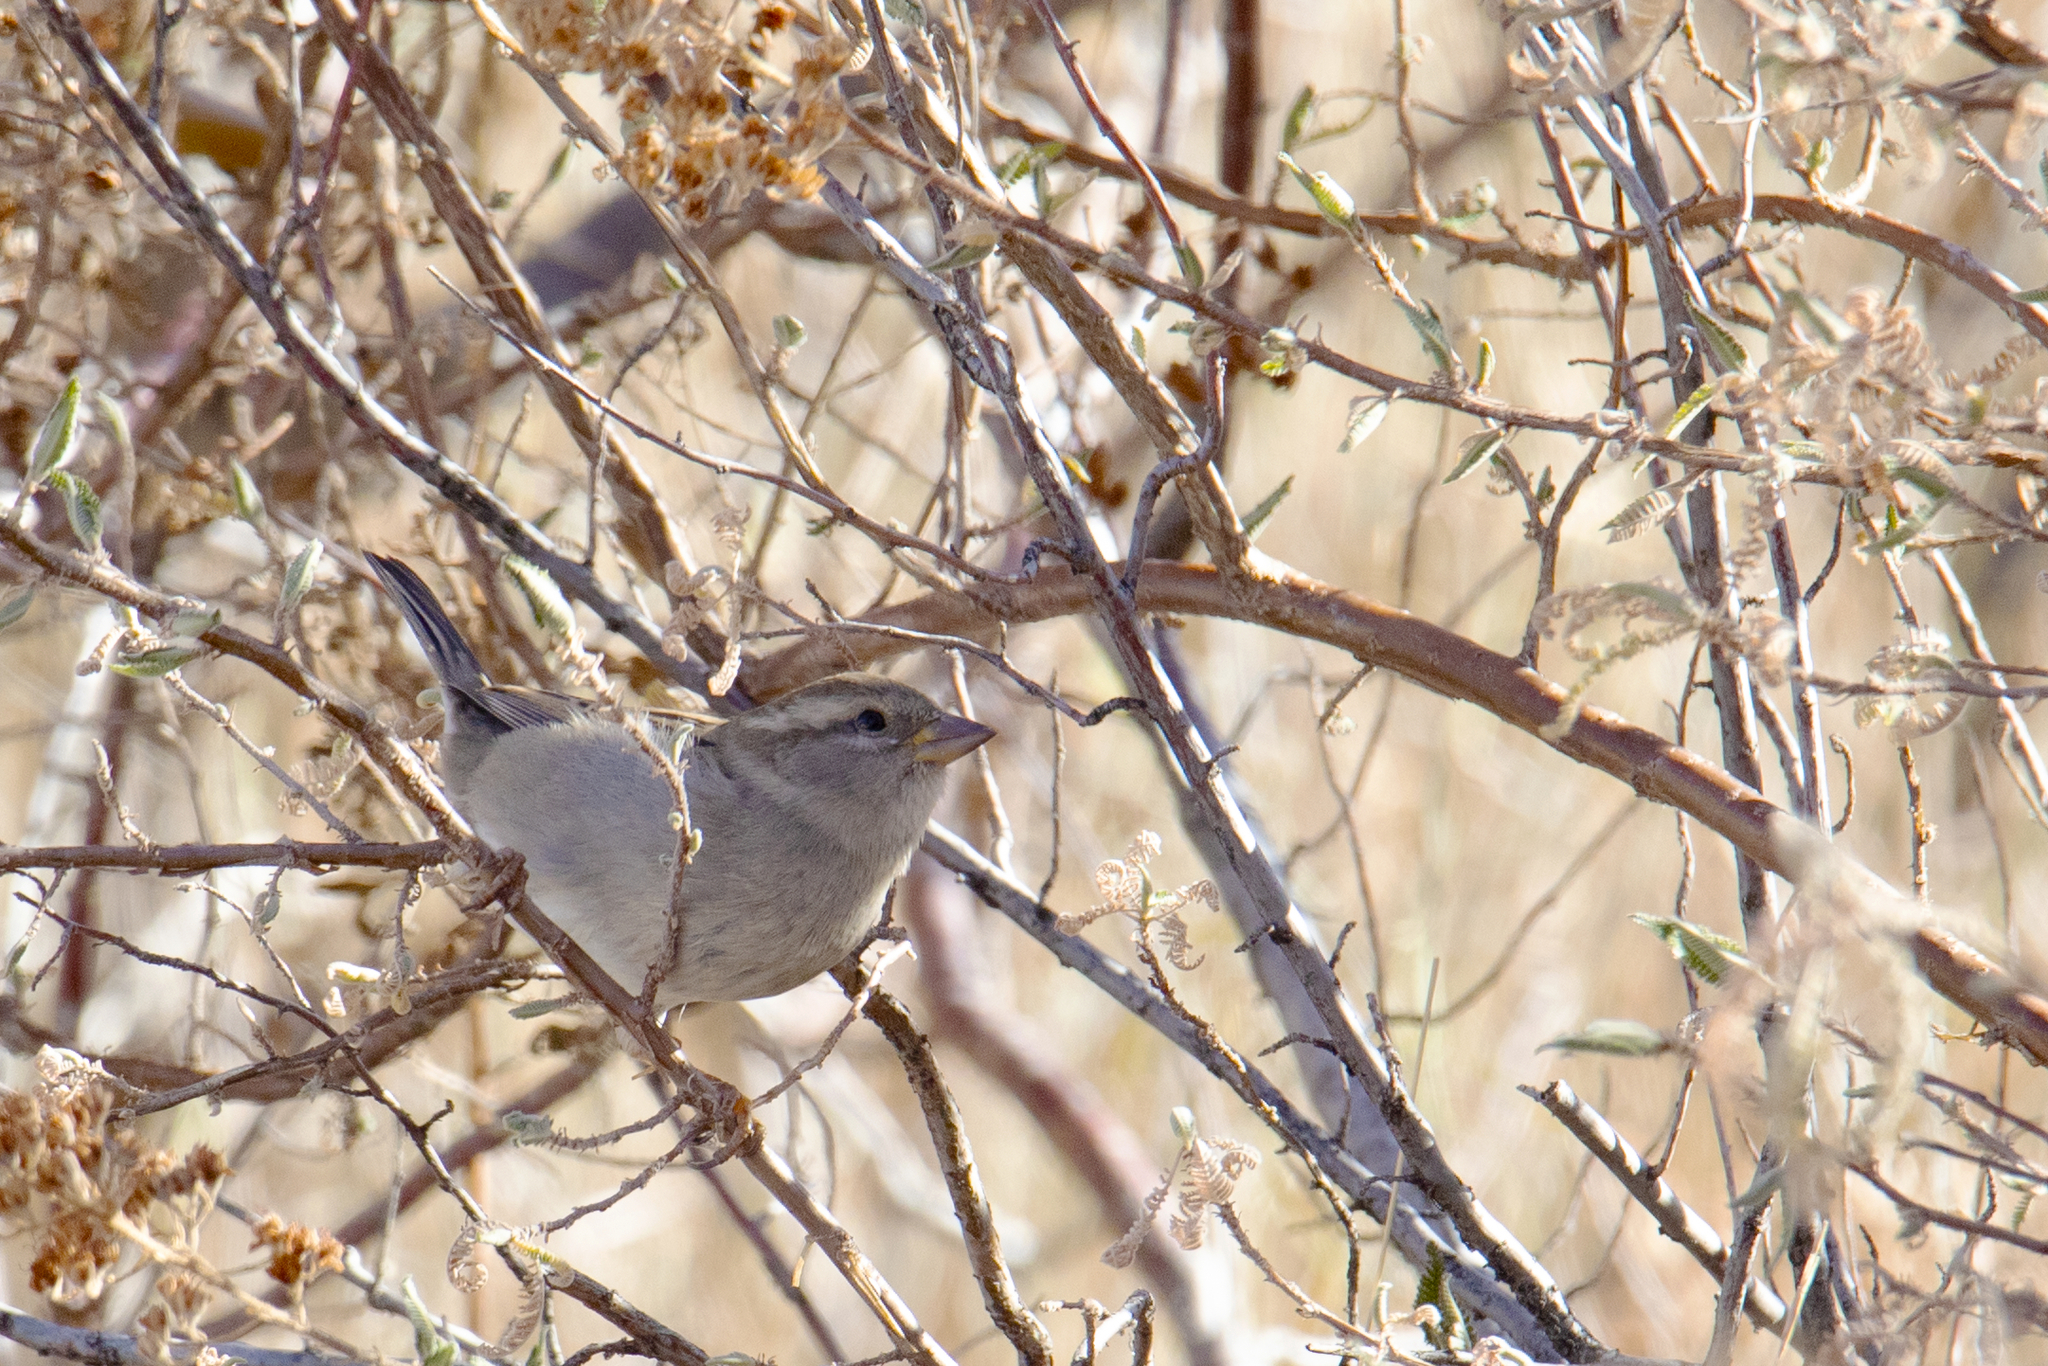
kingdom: Animalia
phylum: Chordata
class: Aves
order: Passeriformes
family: Passeridae
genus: Passer
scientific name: Passer domesticus
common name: House sparrow
